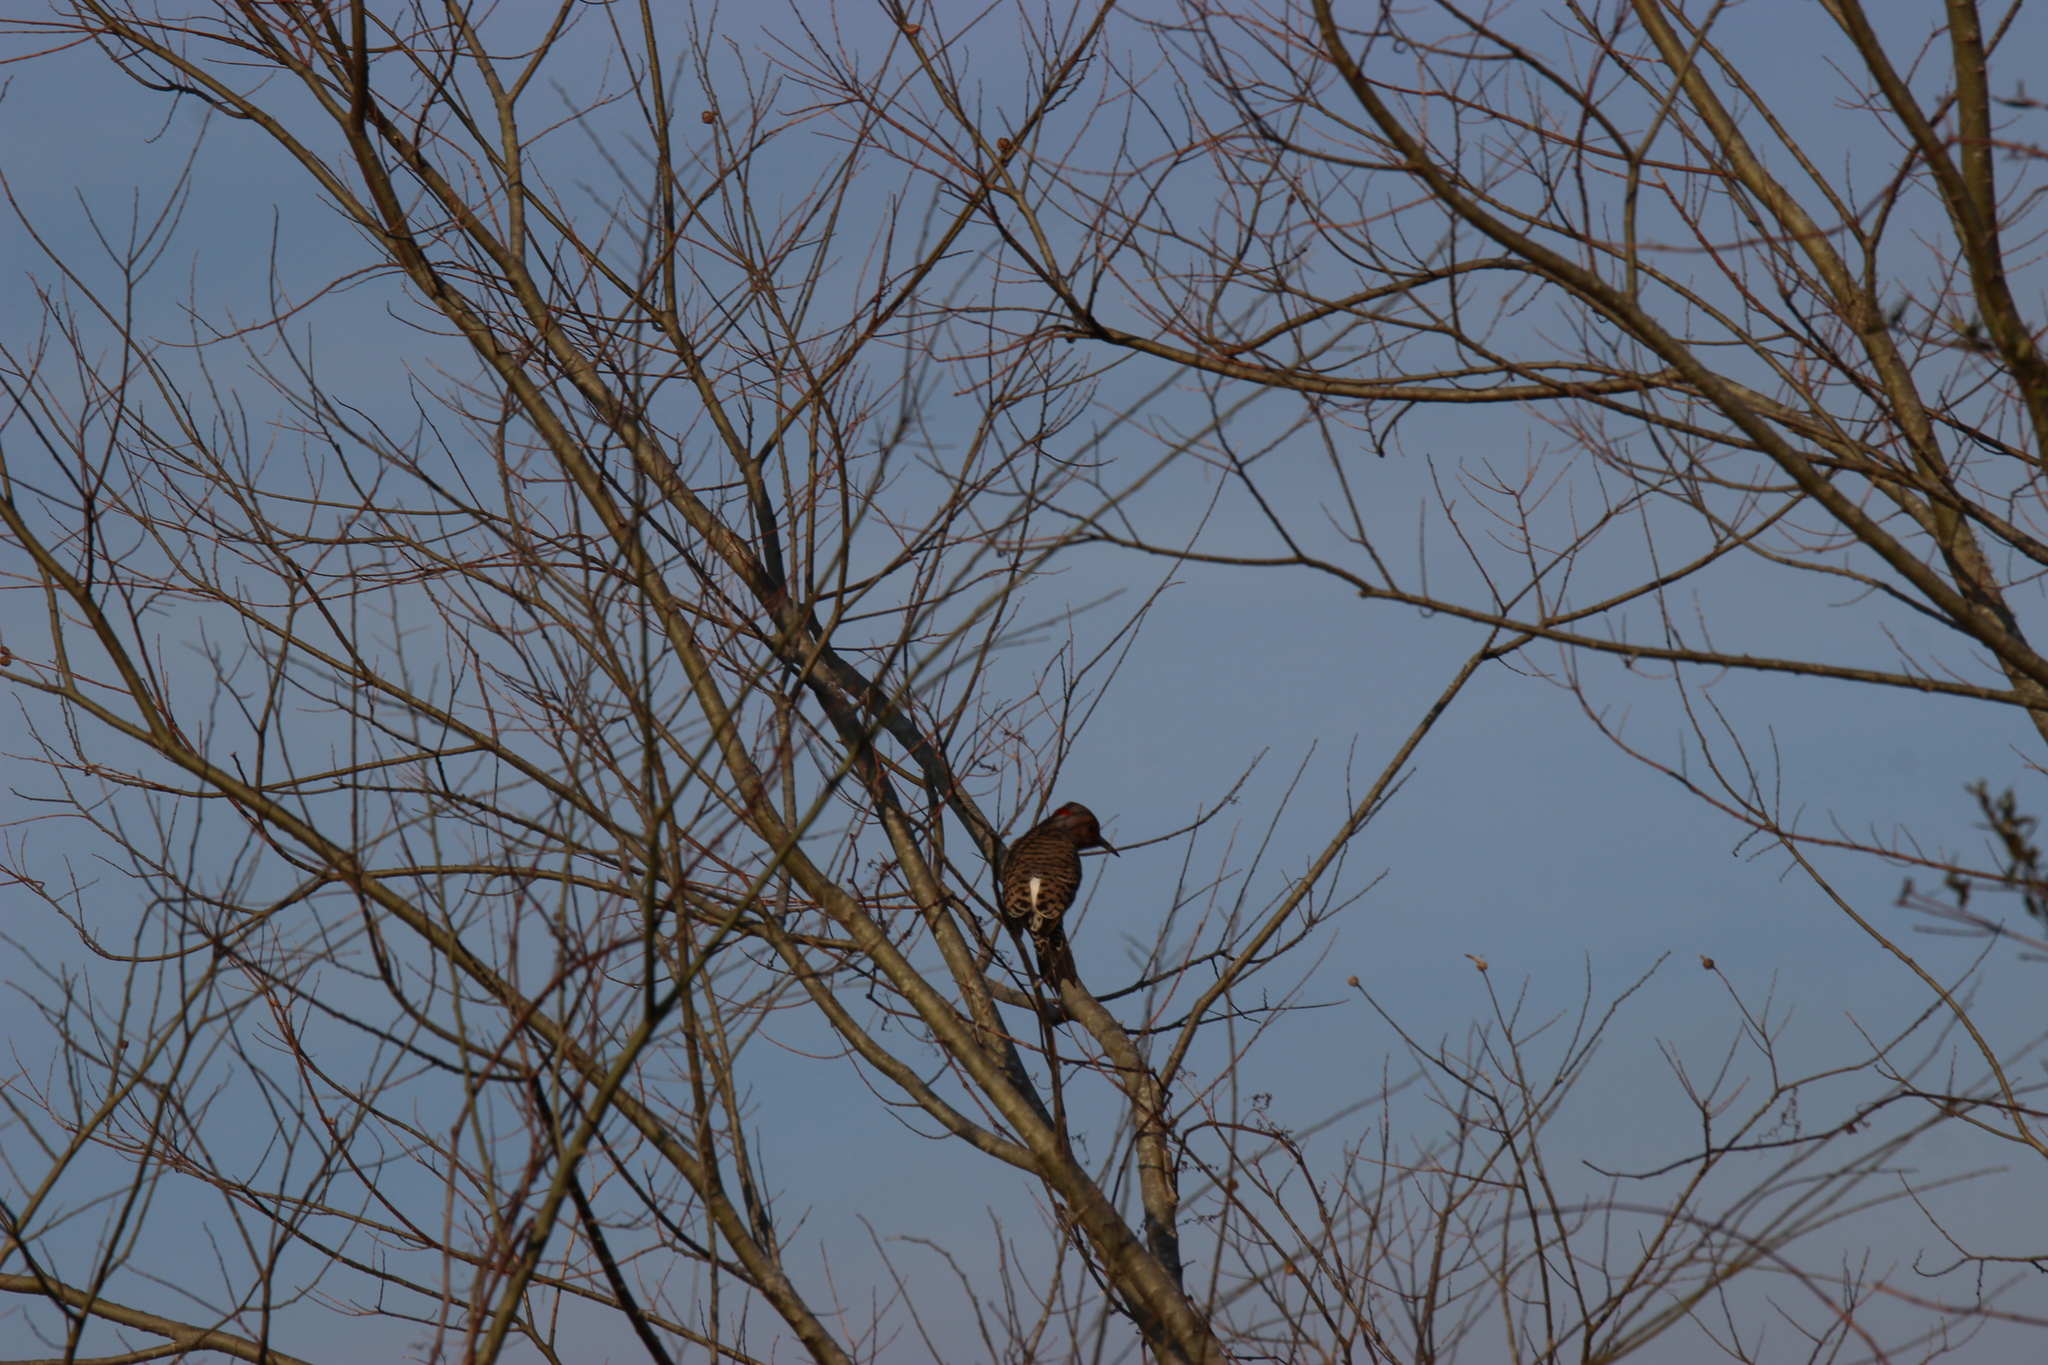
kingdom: Animalia
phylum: Chordata
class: Aves
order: Piciformes
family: Picidae
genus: Colaptes
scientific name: Colaptes auratus
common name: Northern flicker
